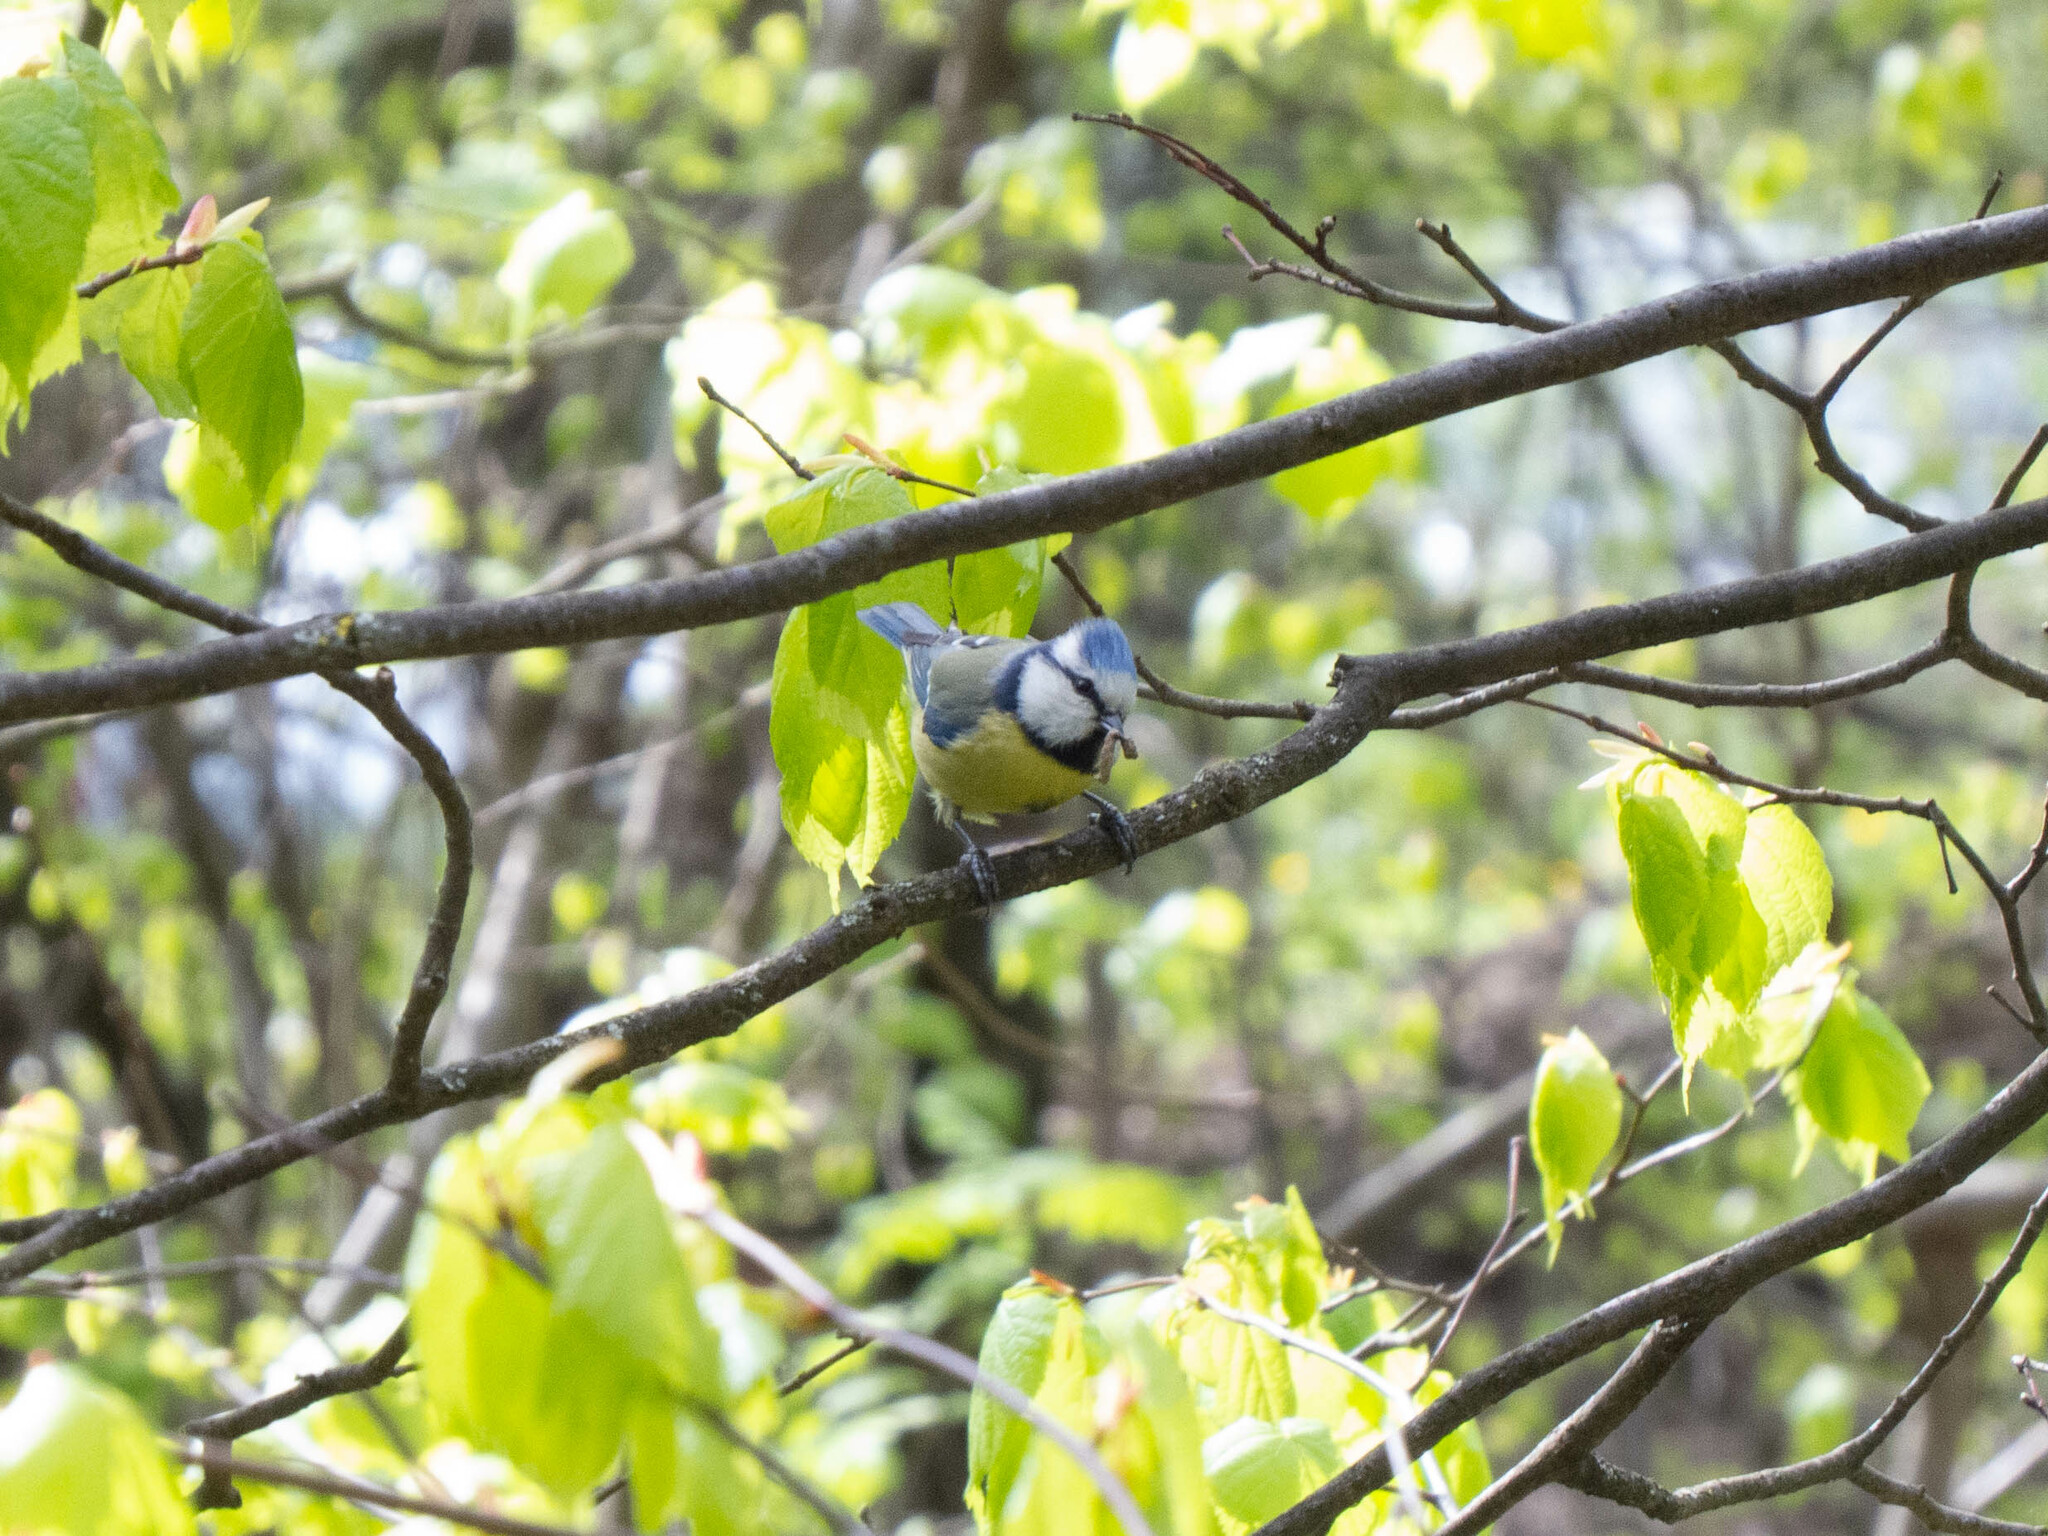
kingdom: Animalia
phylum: Chordata
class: Aves
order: Passeriformes
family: Paridae
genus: Cyanistes
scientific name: Cyanistes caeruleus
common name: Eurasian blue tit
